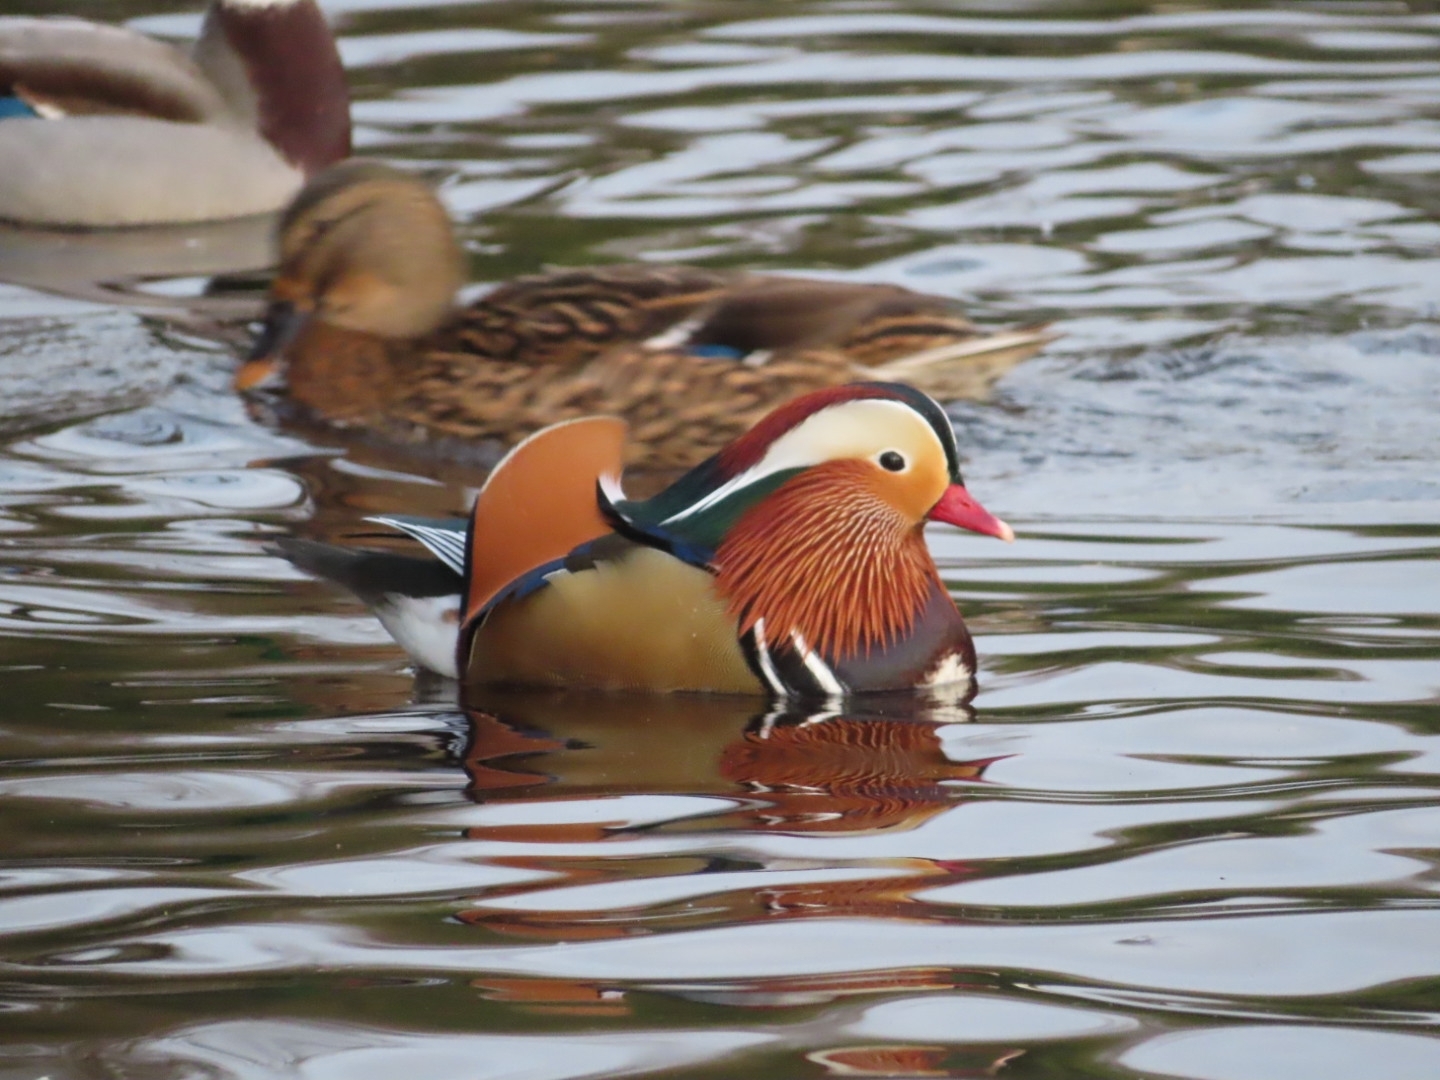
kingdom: Animalia
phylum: Chordata
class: Aves
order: Anseriformes
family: Anatidae
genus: Aix
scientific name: Aix galericulata
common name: Mandarin duck
